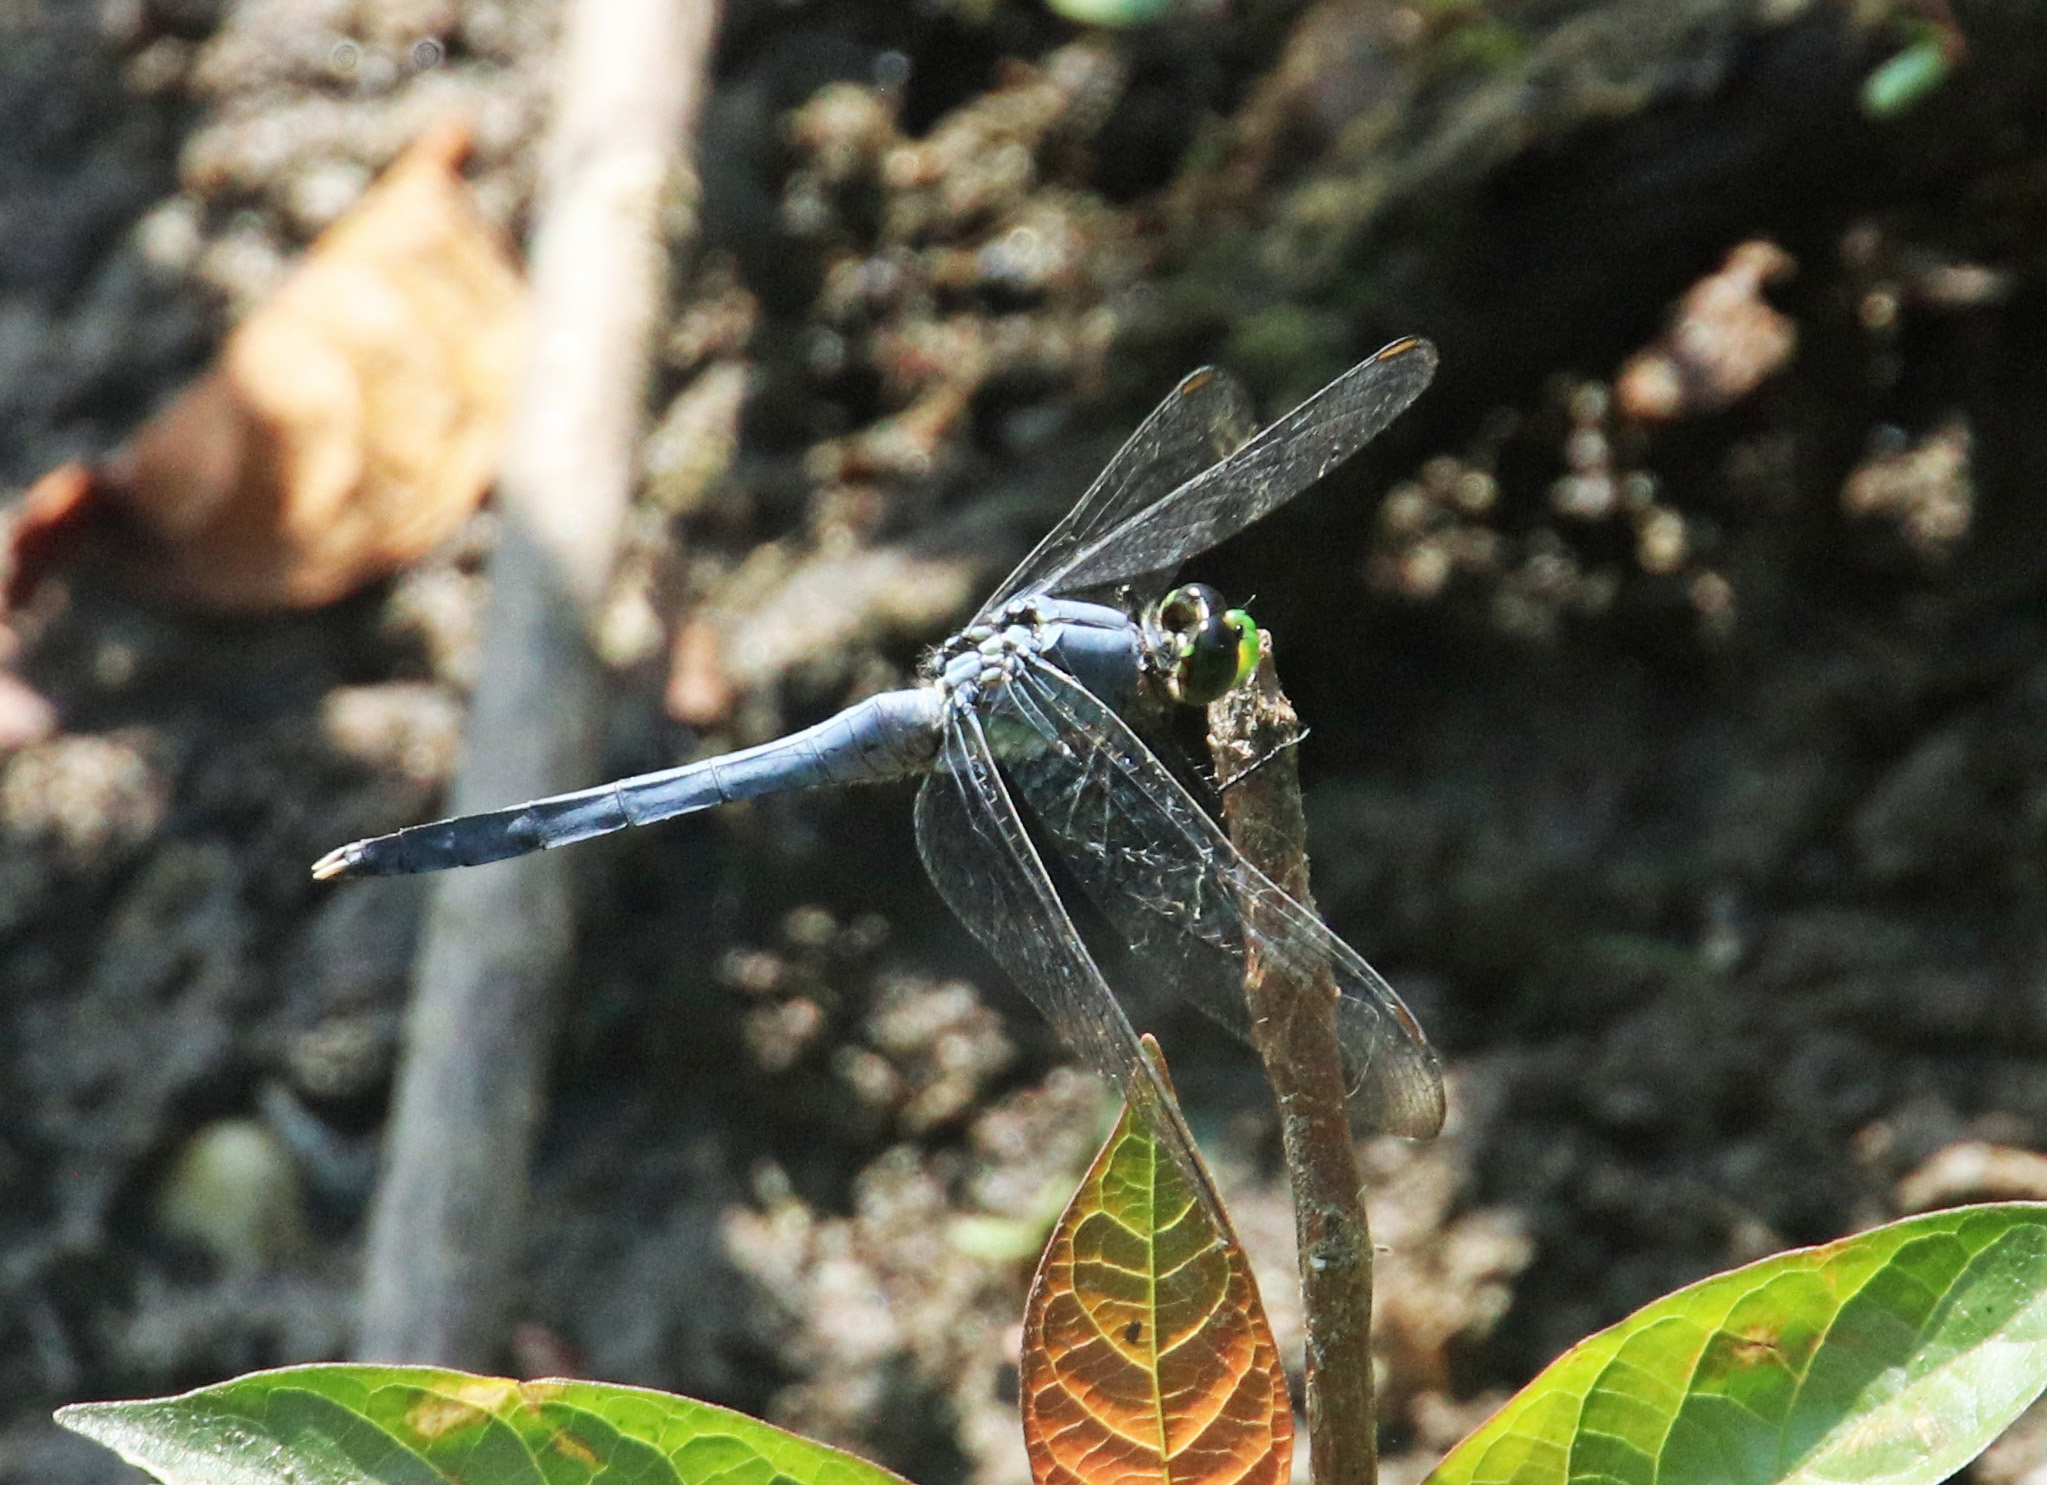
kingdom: Animalia
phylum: Arthropoda
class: Insecta
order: Odonata
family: Libellulidae
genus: Erythemis
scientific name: Erythemis simplicicollis
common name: Eastern pondhawk
